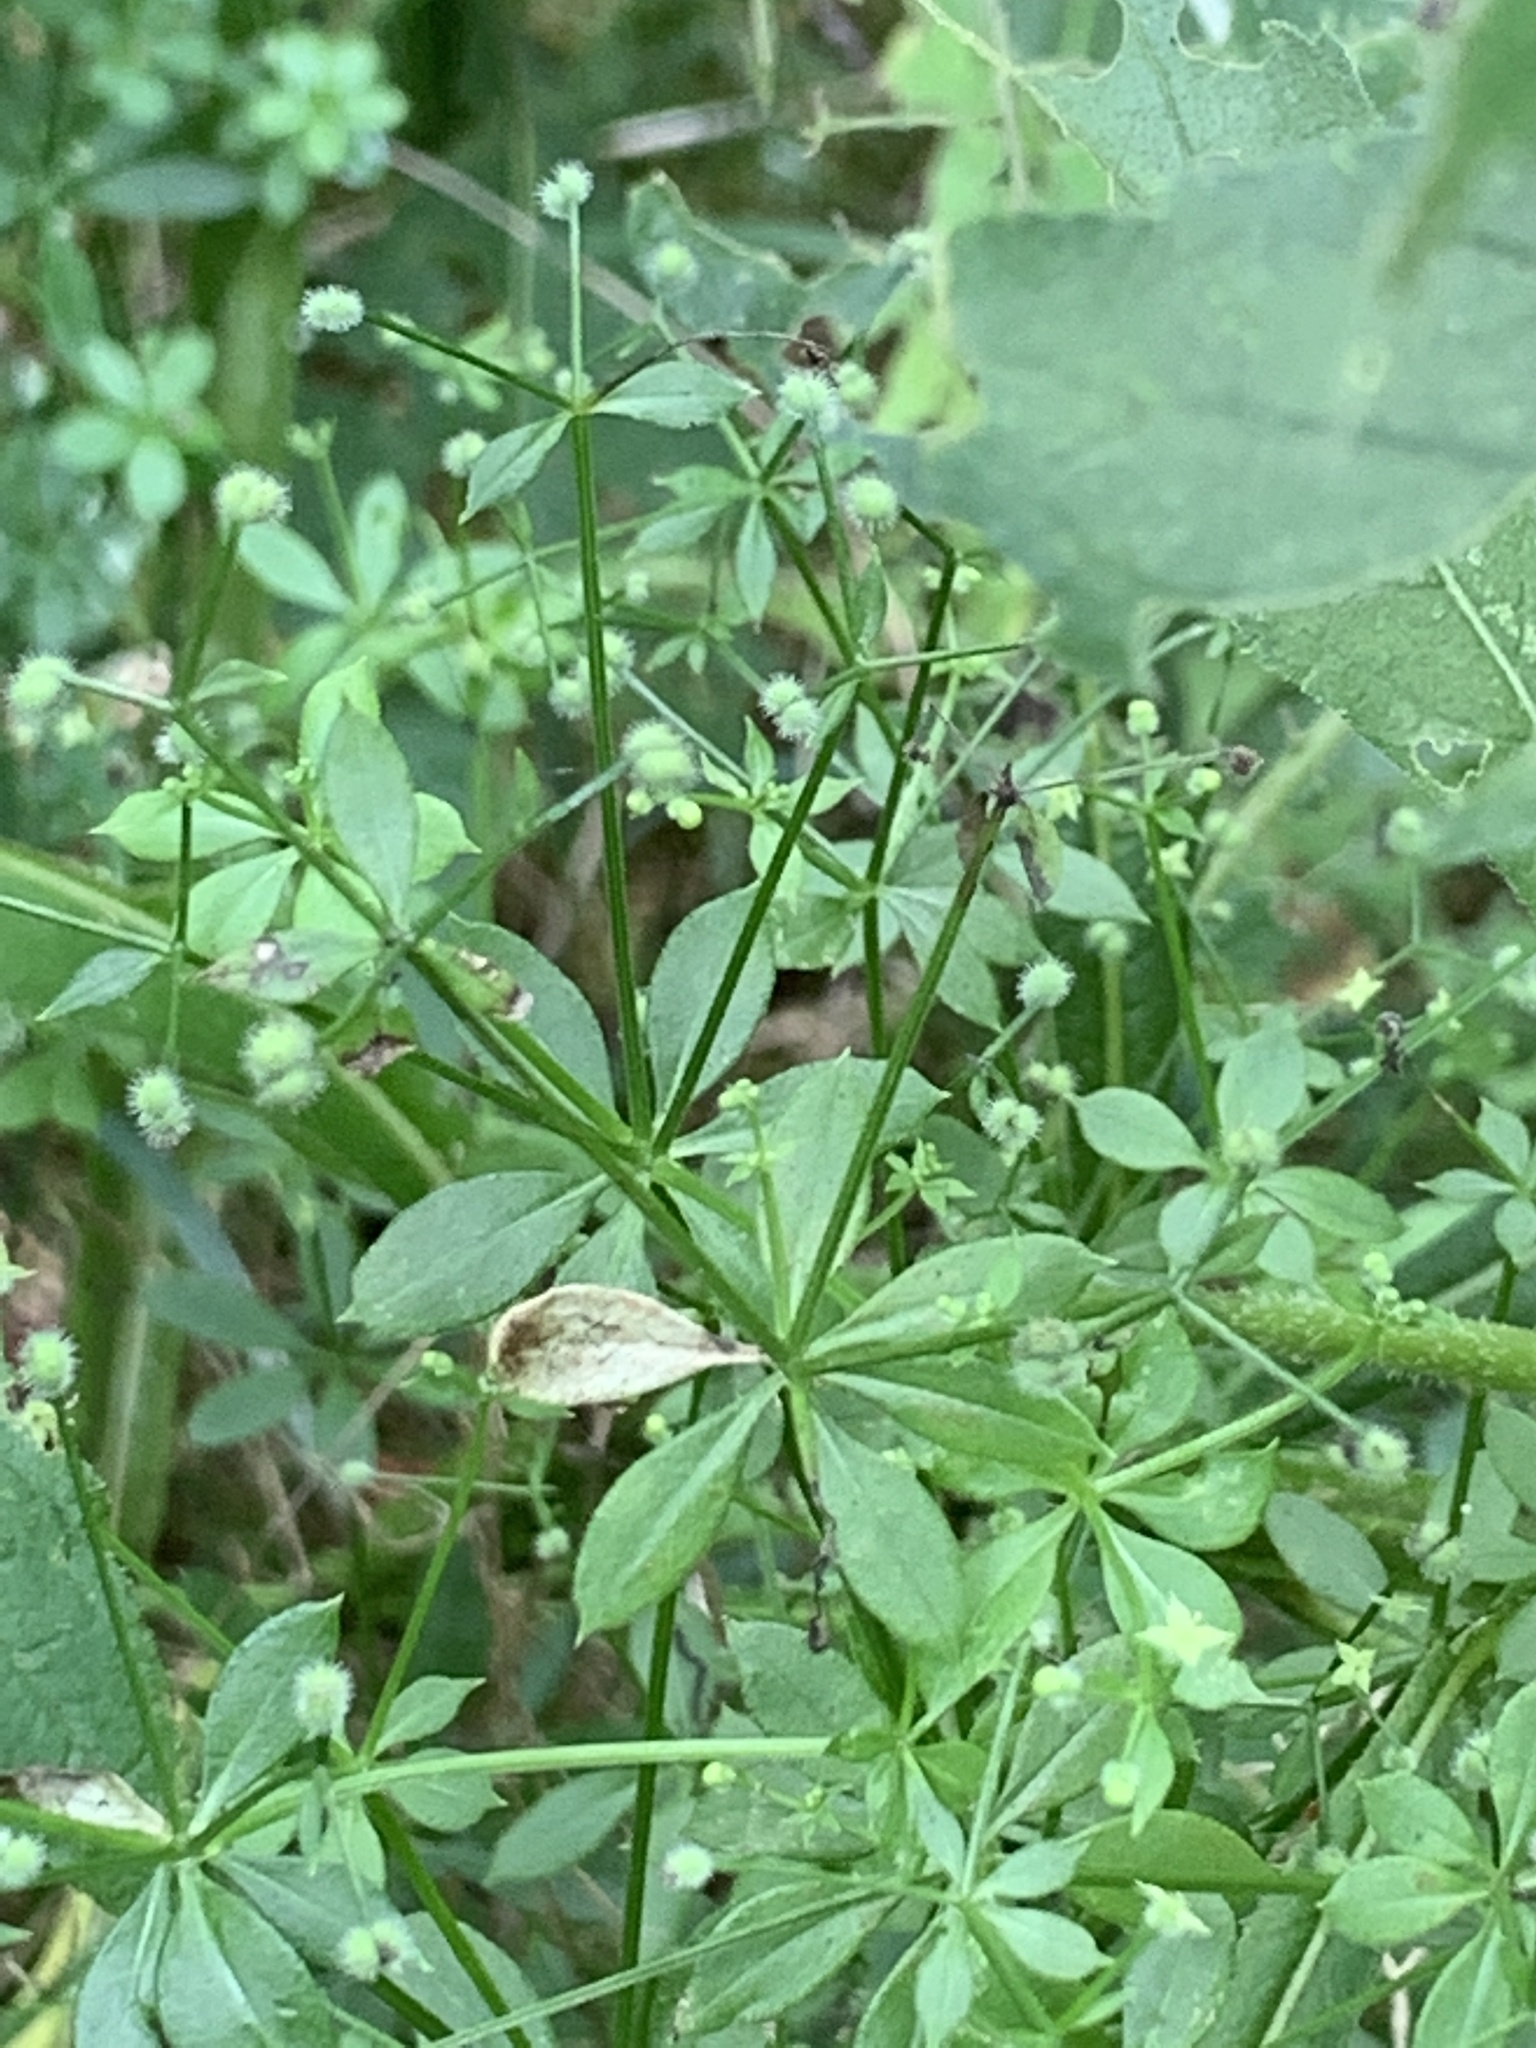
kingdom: Plantae
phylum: Tracheophyta
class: Magnoliopsida
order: Gentianales
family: Rubiaceae
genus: Galium
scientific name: Galium triflorum
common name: Fragrant bedstraw
